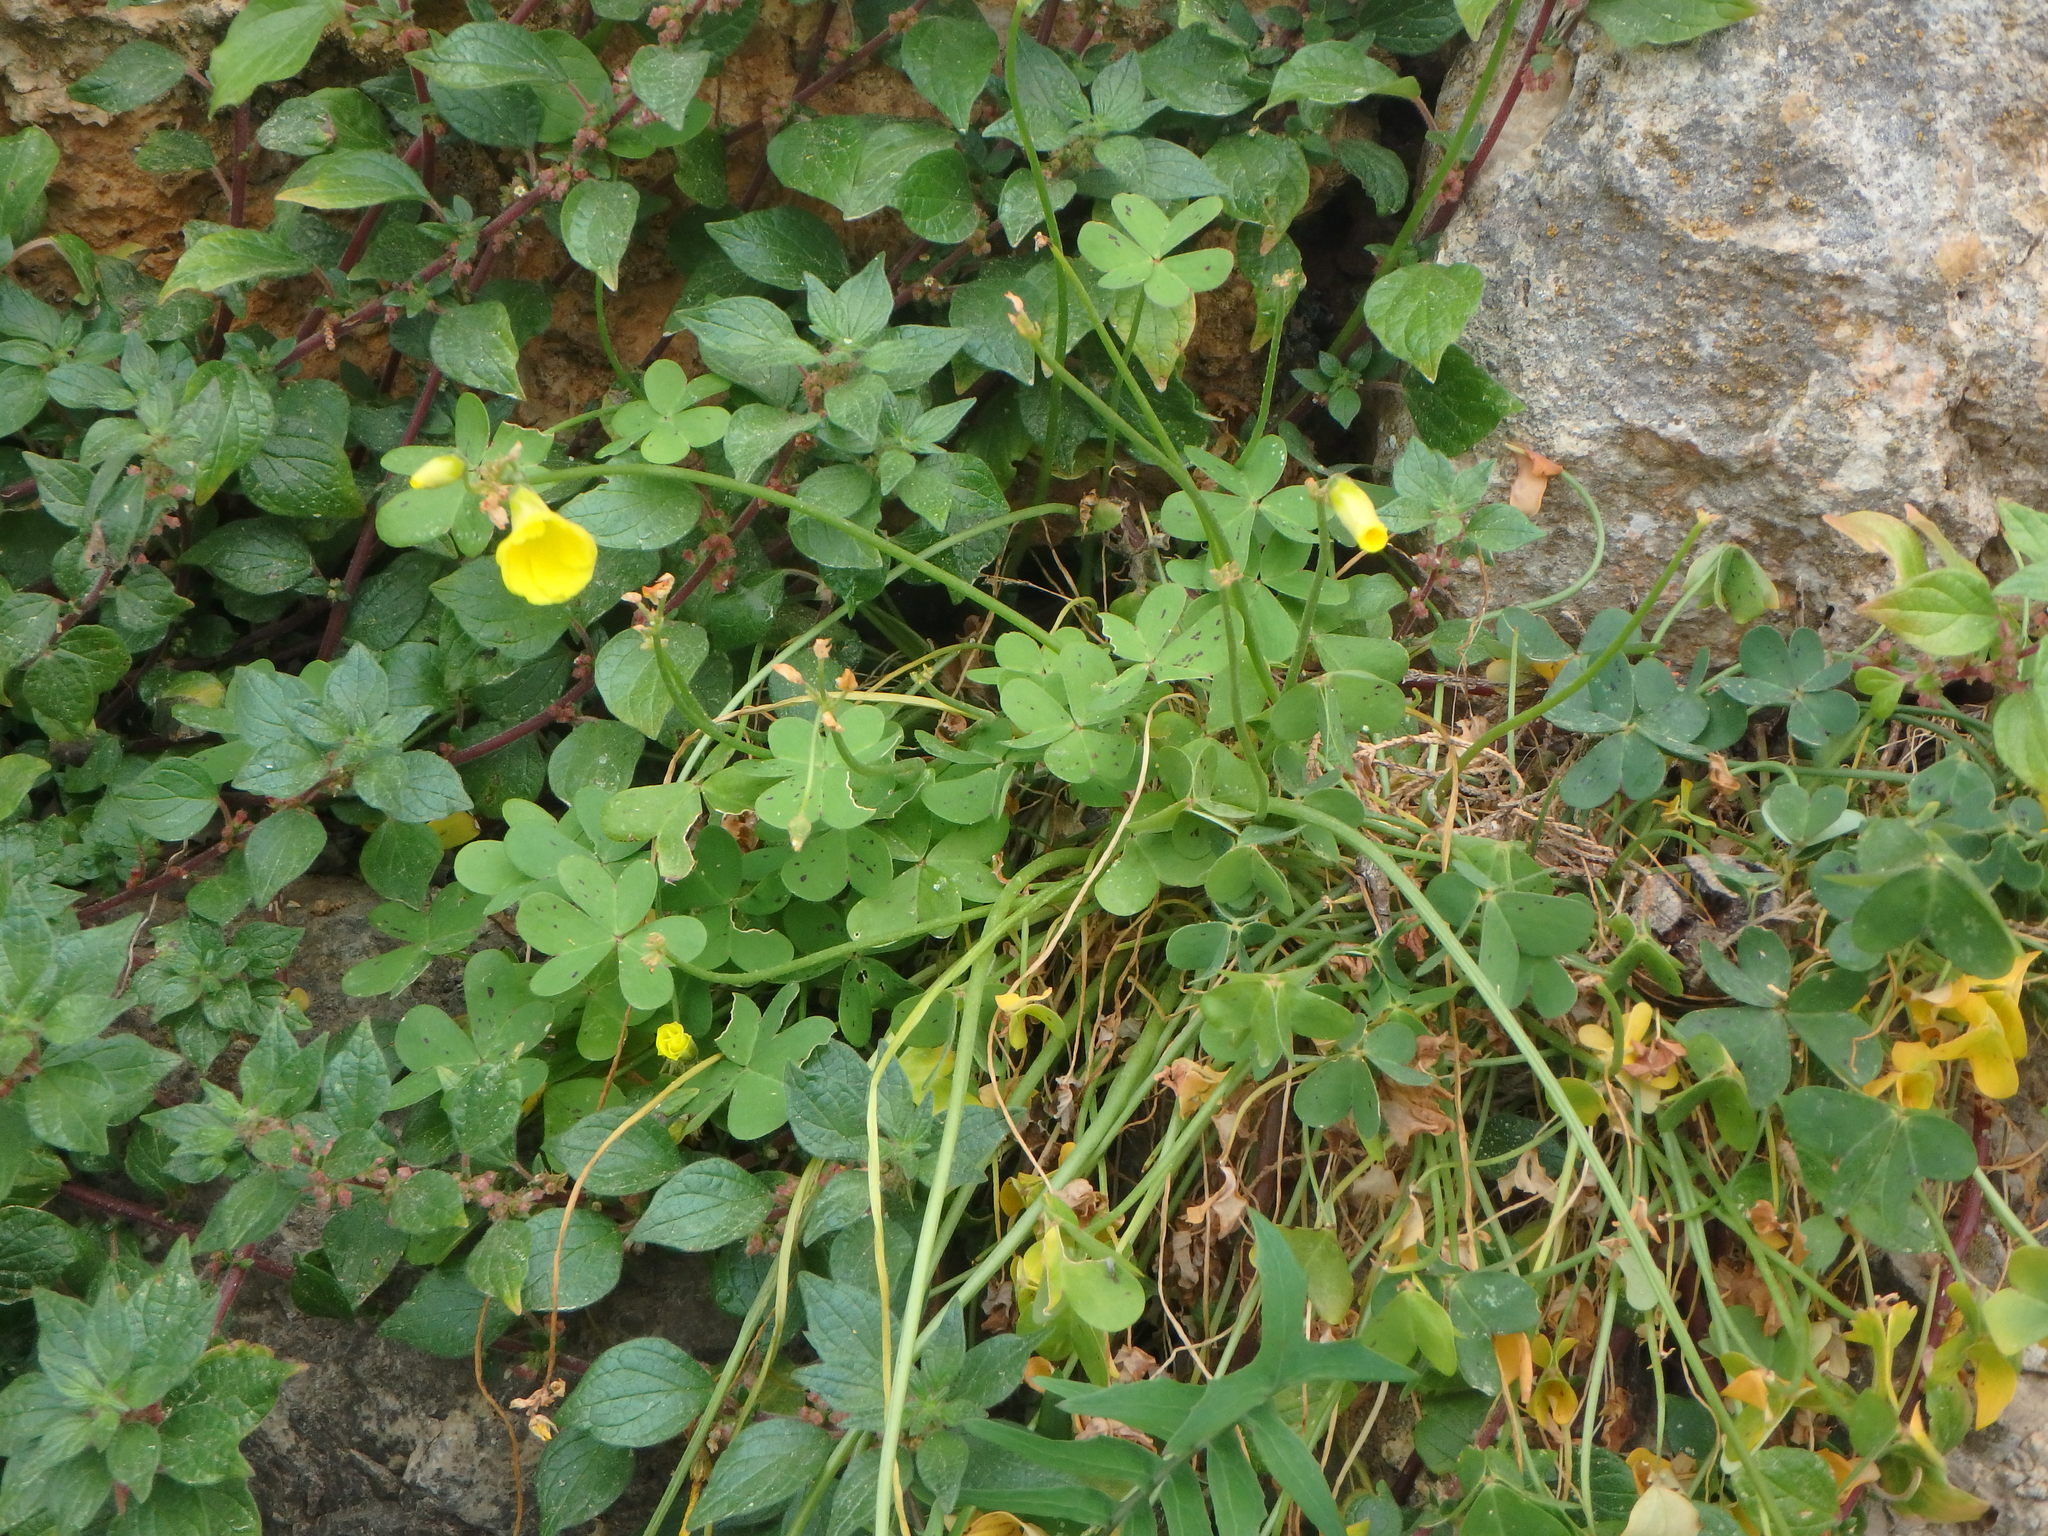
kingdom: Plantae
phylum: Tracheophyta
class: Magnoliopsida
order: Oxalidales
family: Oxalidaceae
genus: Oxalis
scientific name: Oxalis pes-caprae
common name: Bermuda-buttercup
